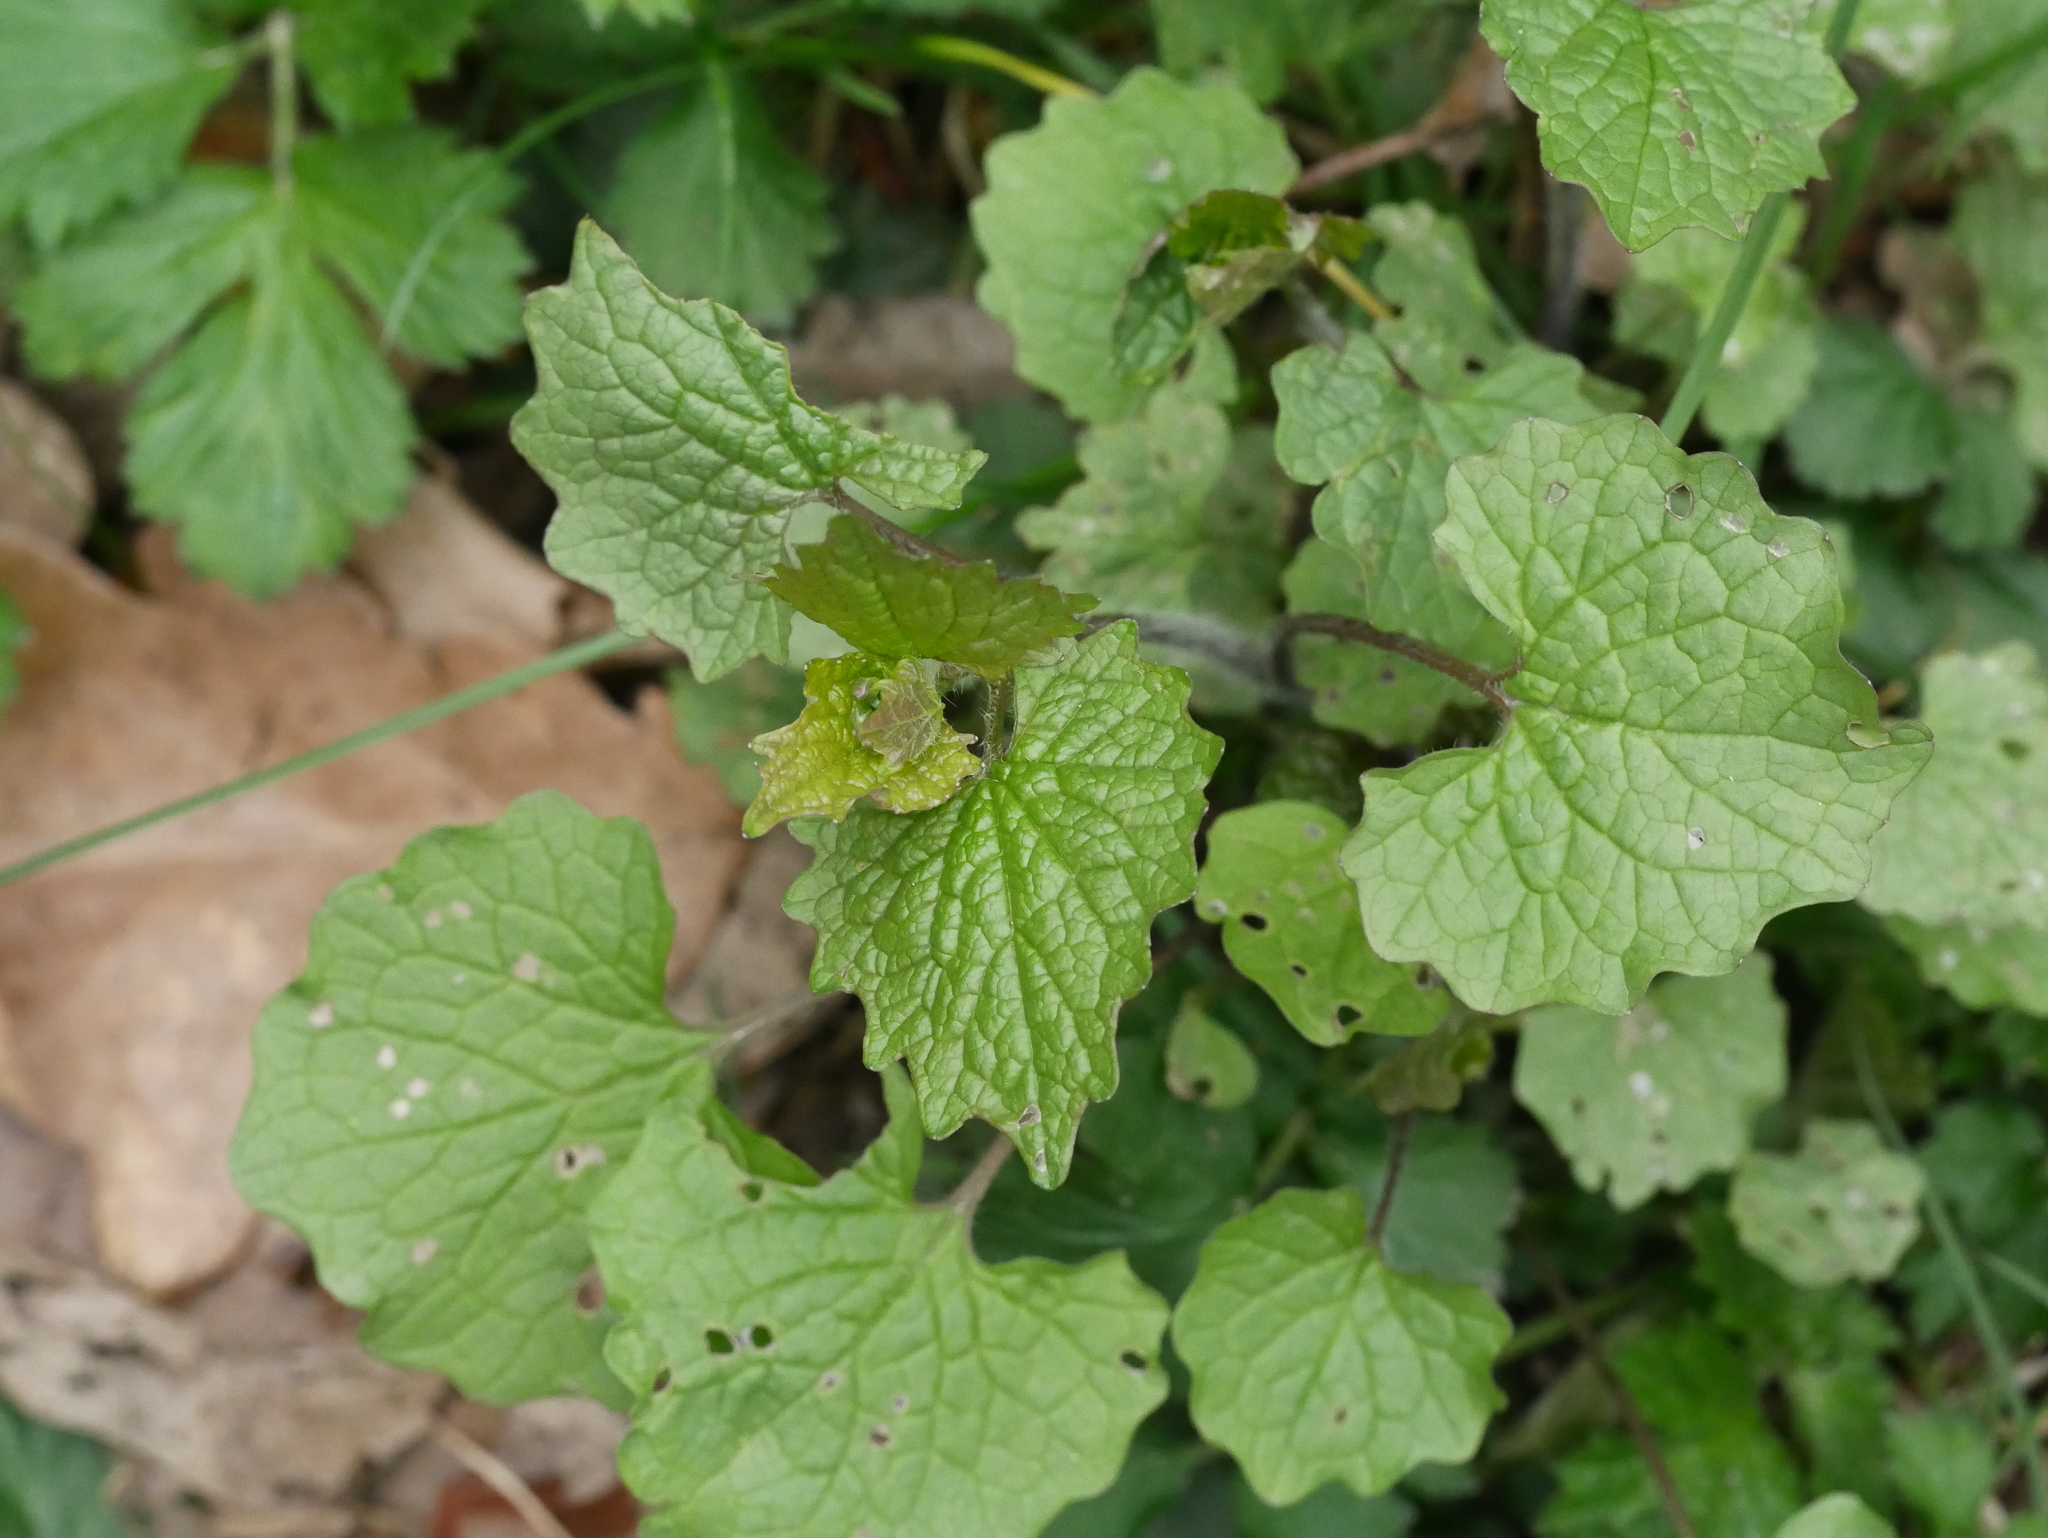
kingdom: Plantae
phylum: Tracheophyta
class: Magnoliopsida
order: Brassicales
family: Brassicaceae
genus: Alliaria
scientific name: Alliaria petiolata
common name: Garlic mustard
